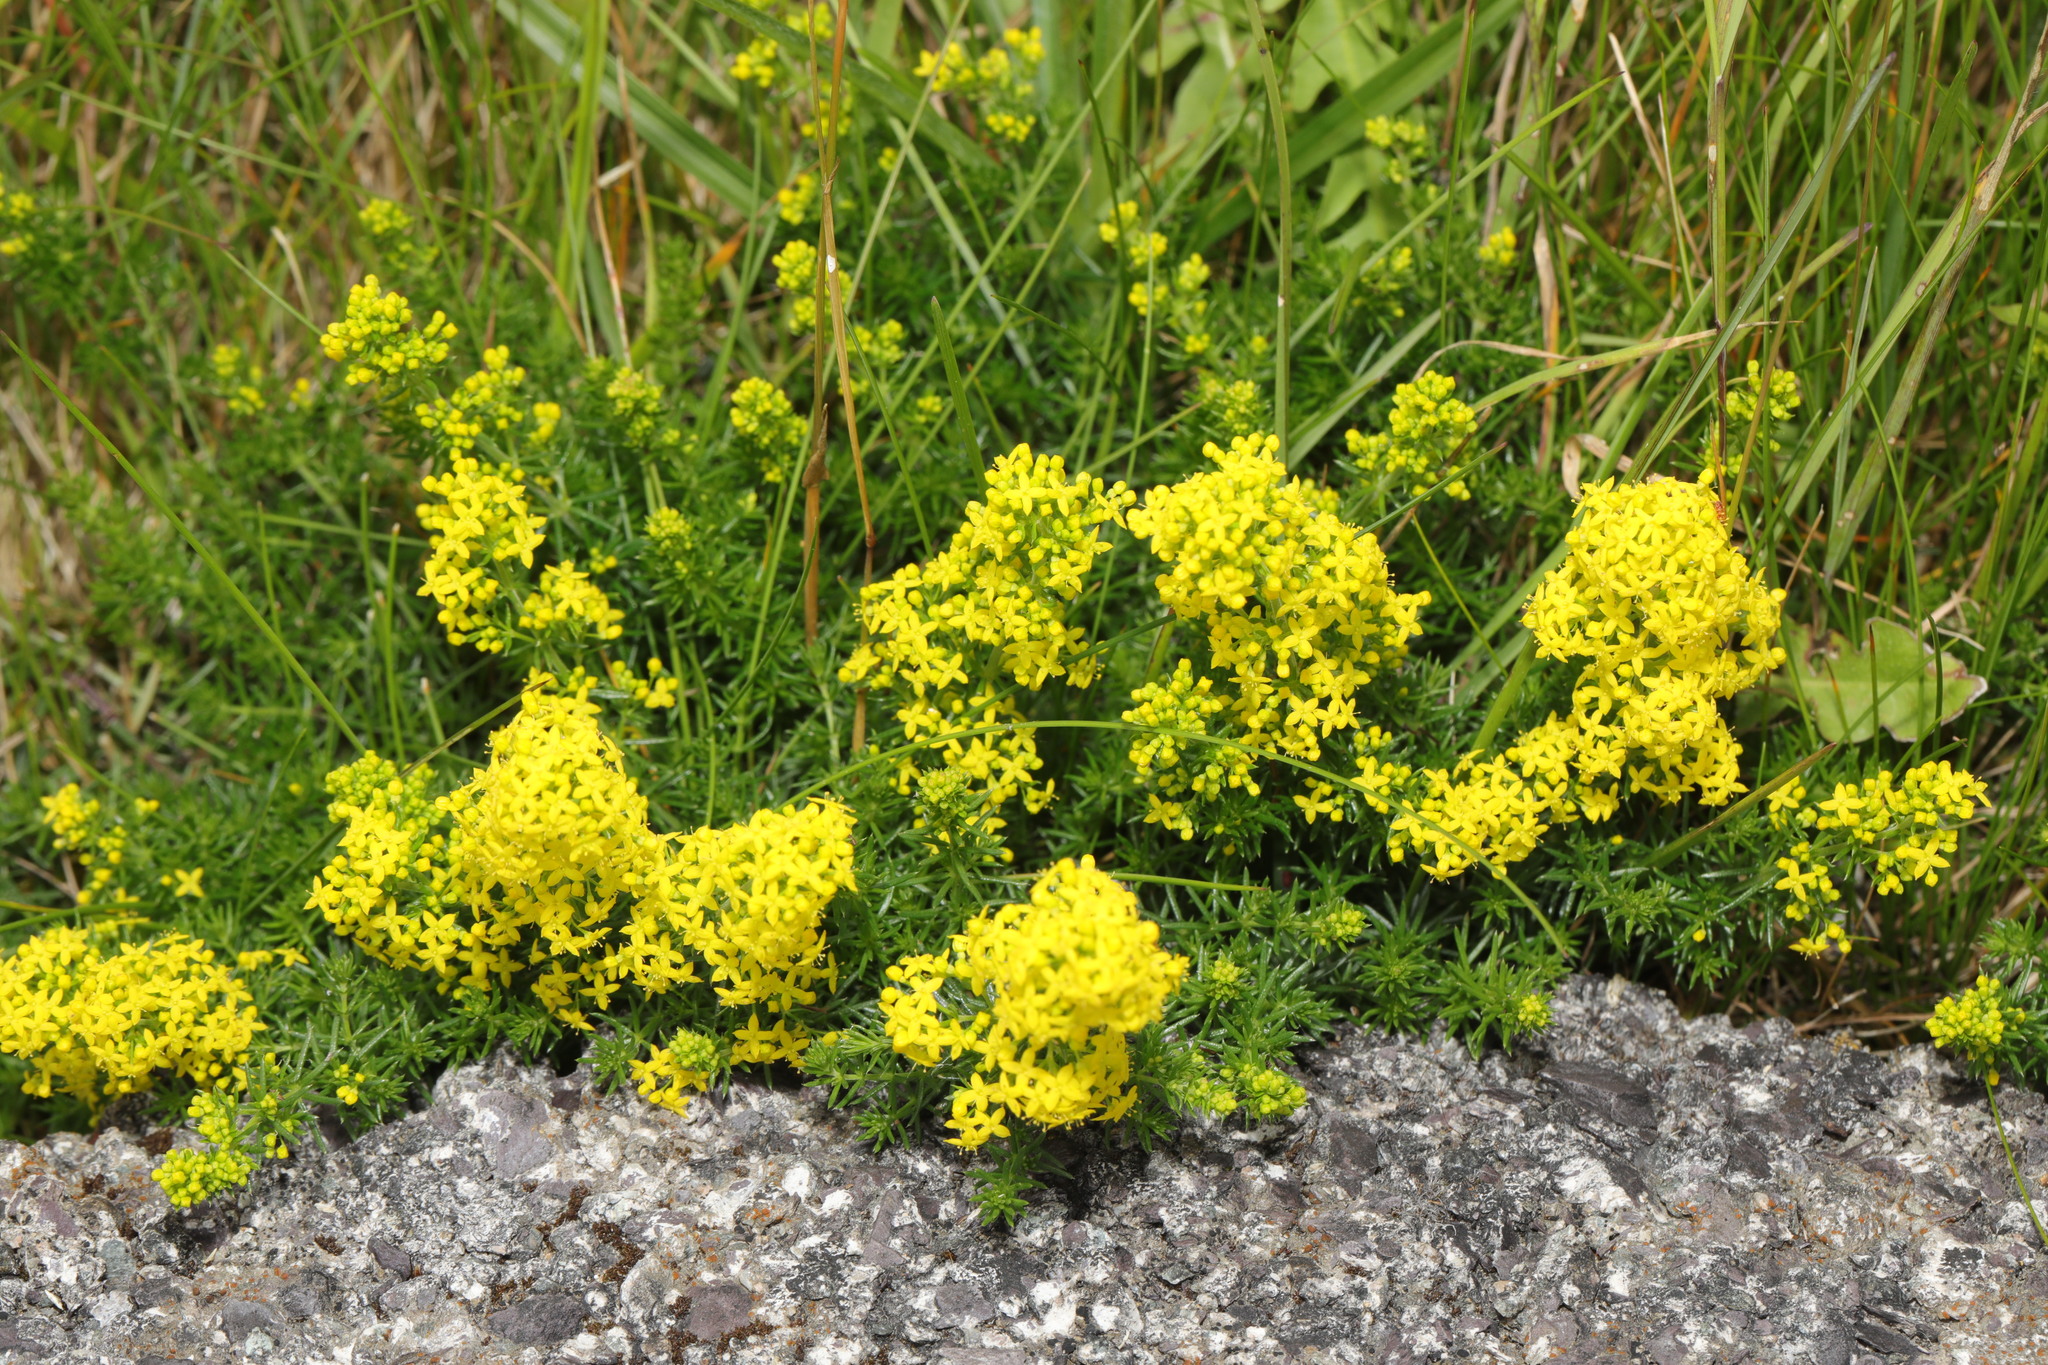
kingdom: Plantae
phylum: Tracheophyta
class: Magnoliopsida
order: Gentianales
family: Rubiaceae
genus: Galium
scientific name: Galium verum
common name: Lady's bedstraw
